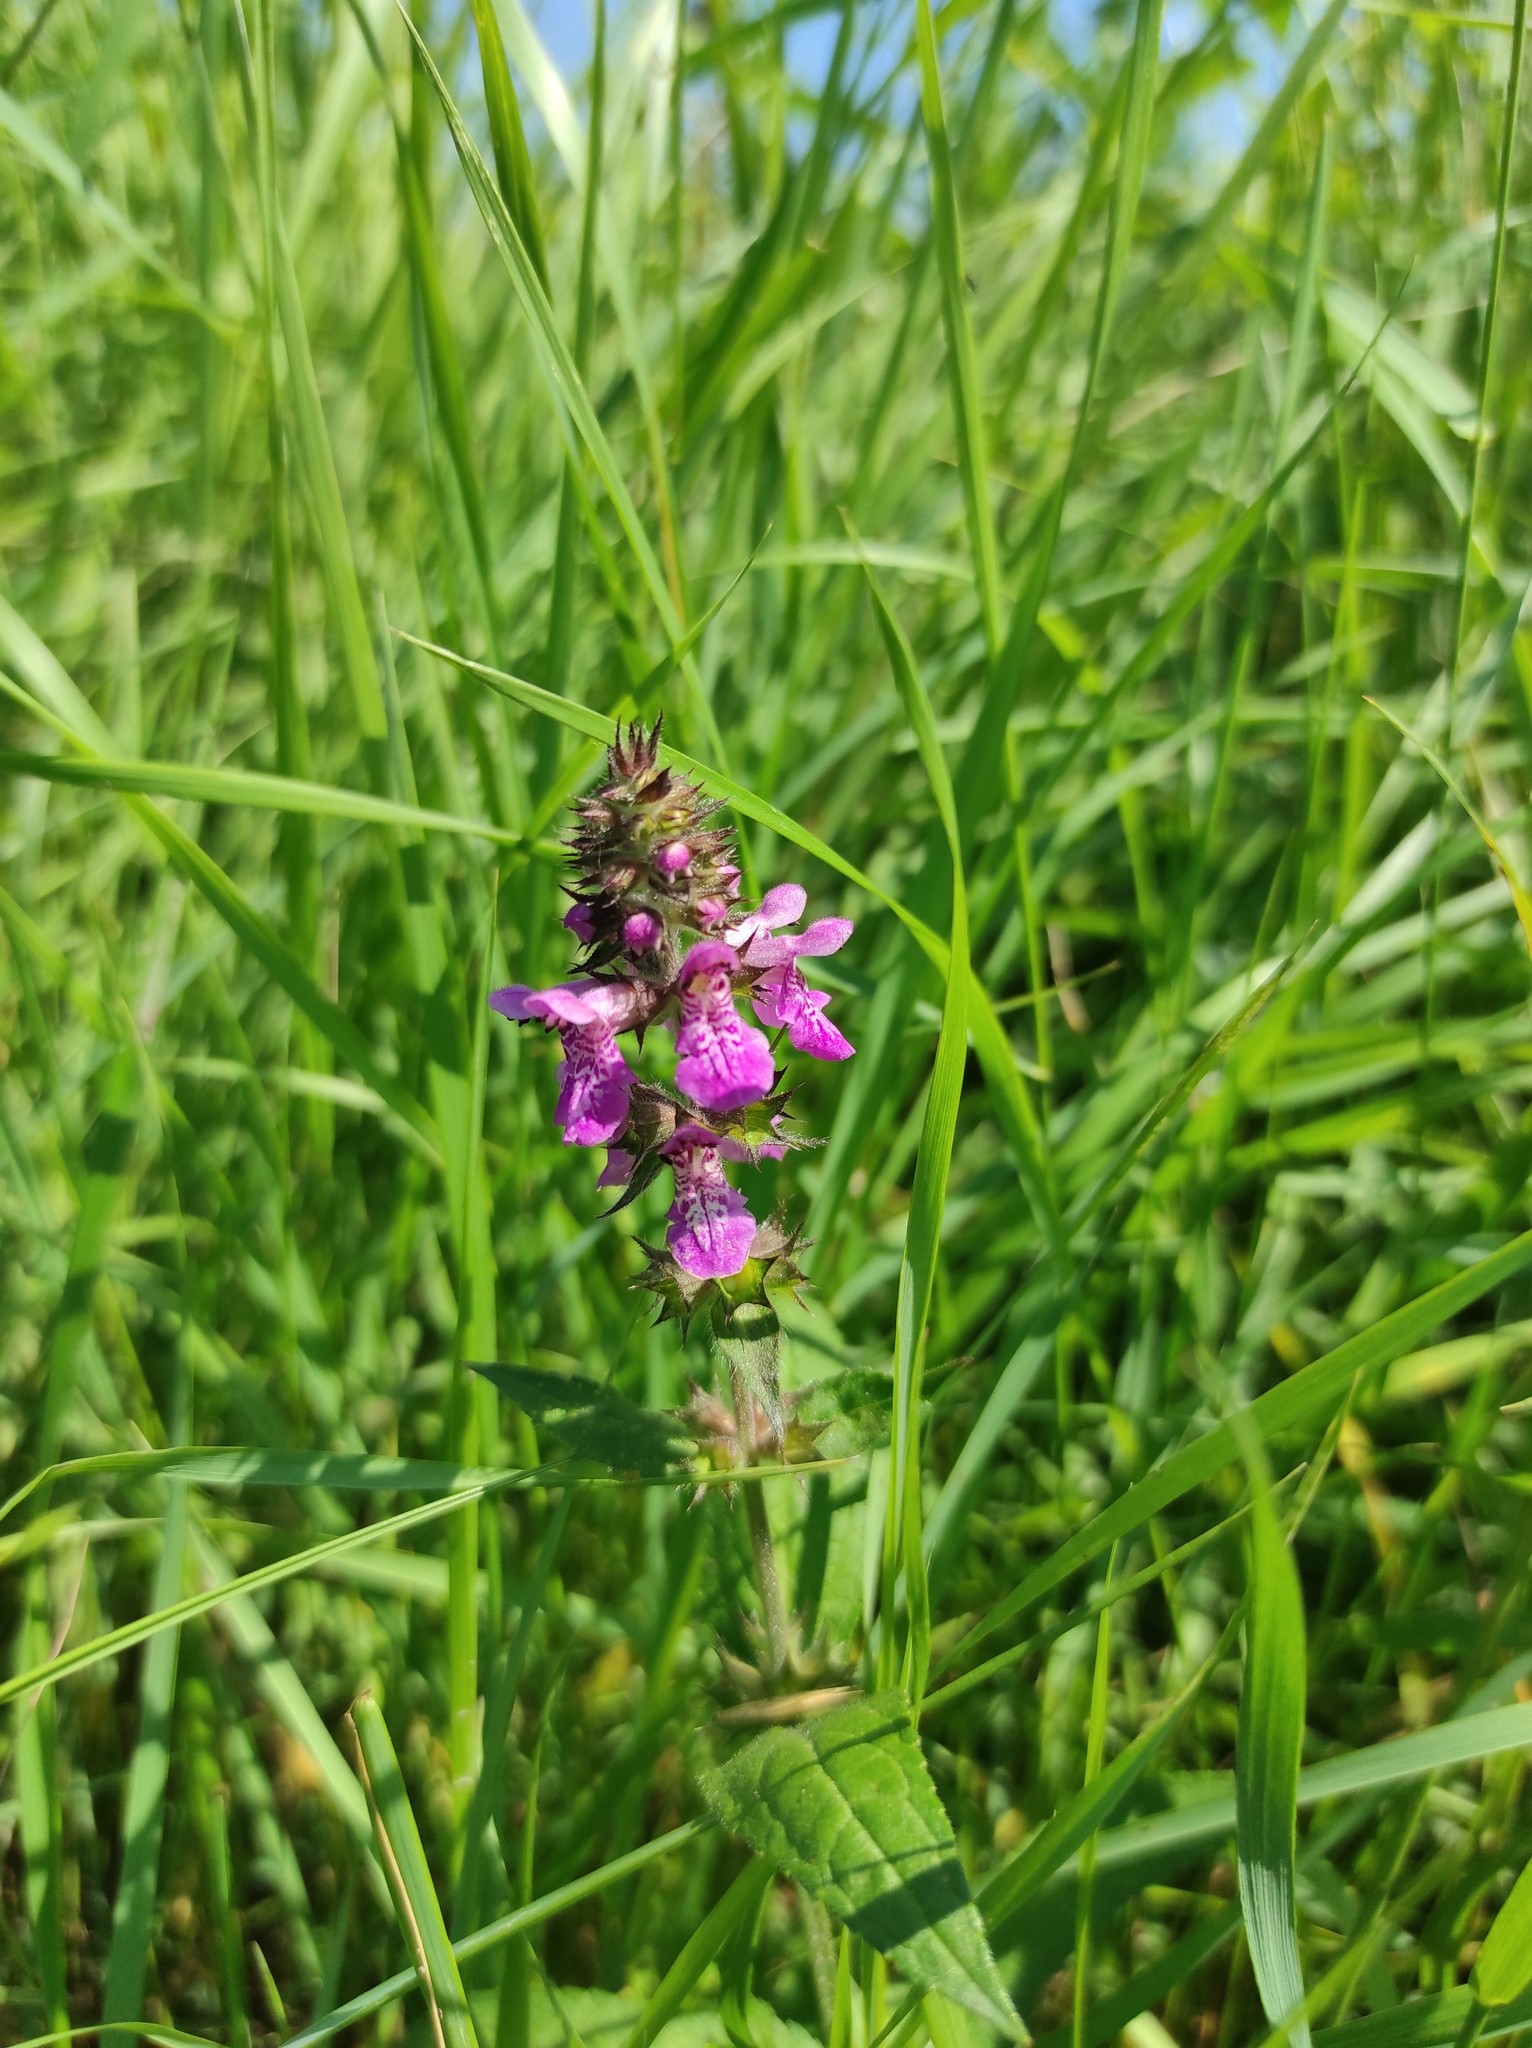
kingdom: Plantae
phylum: Tracheophyta
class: Magnoliopsida
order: Lamiales
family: Lamiaceae
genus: Stachys
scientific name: Stachys palustris
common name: Marsh woundwort
